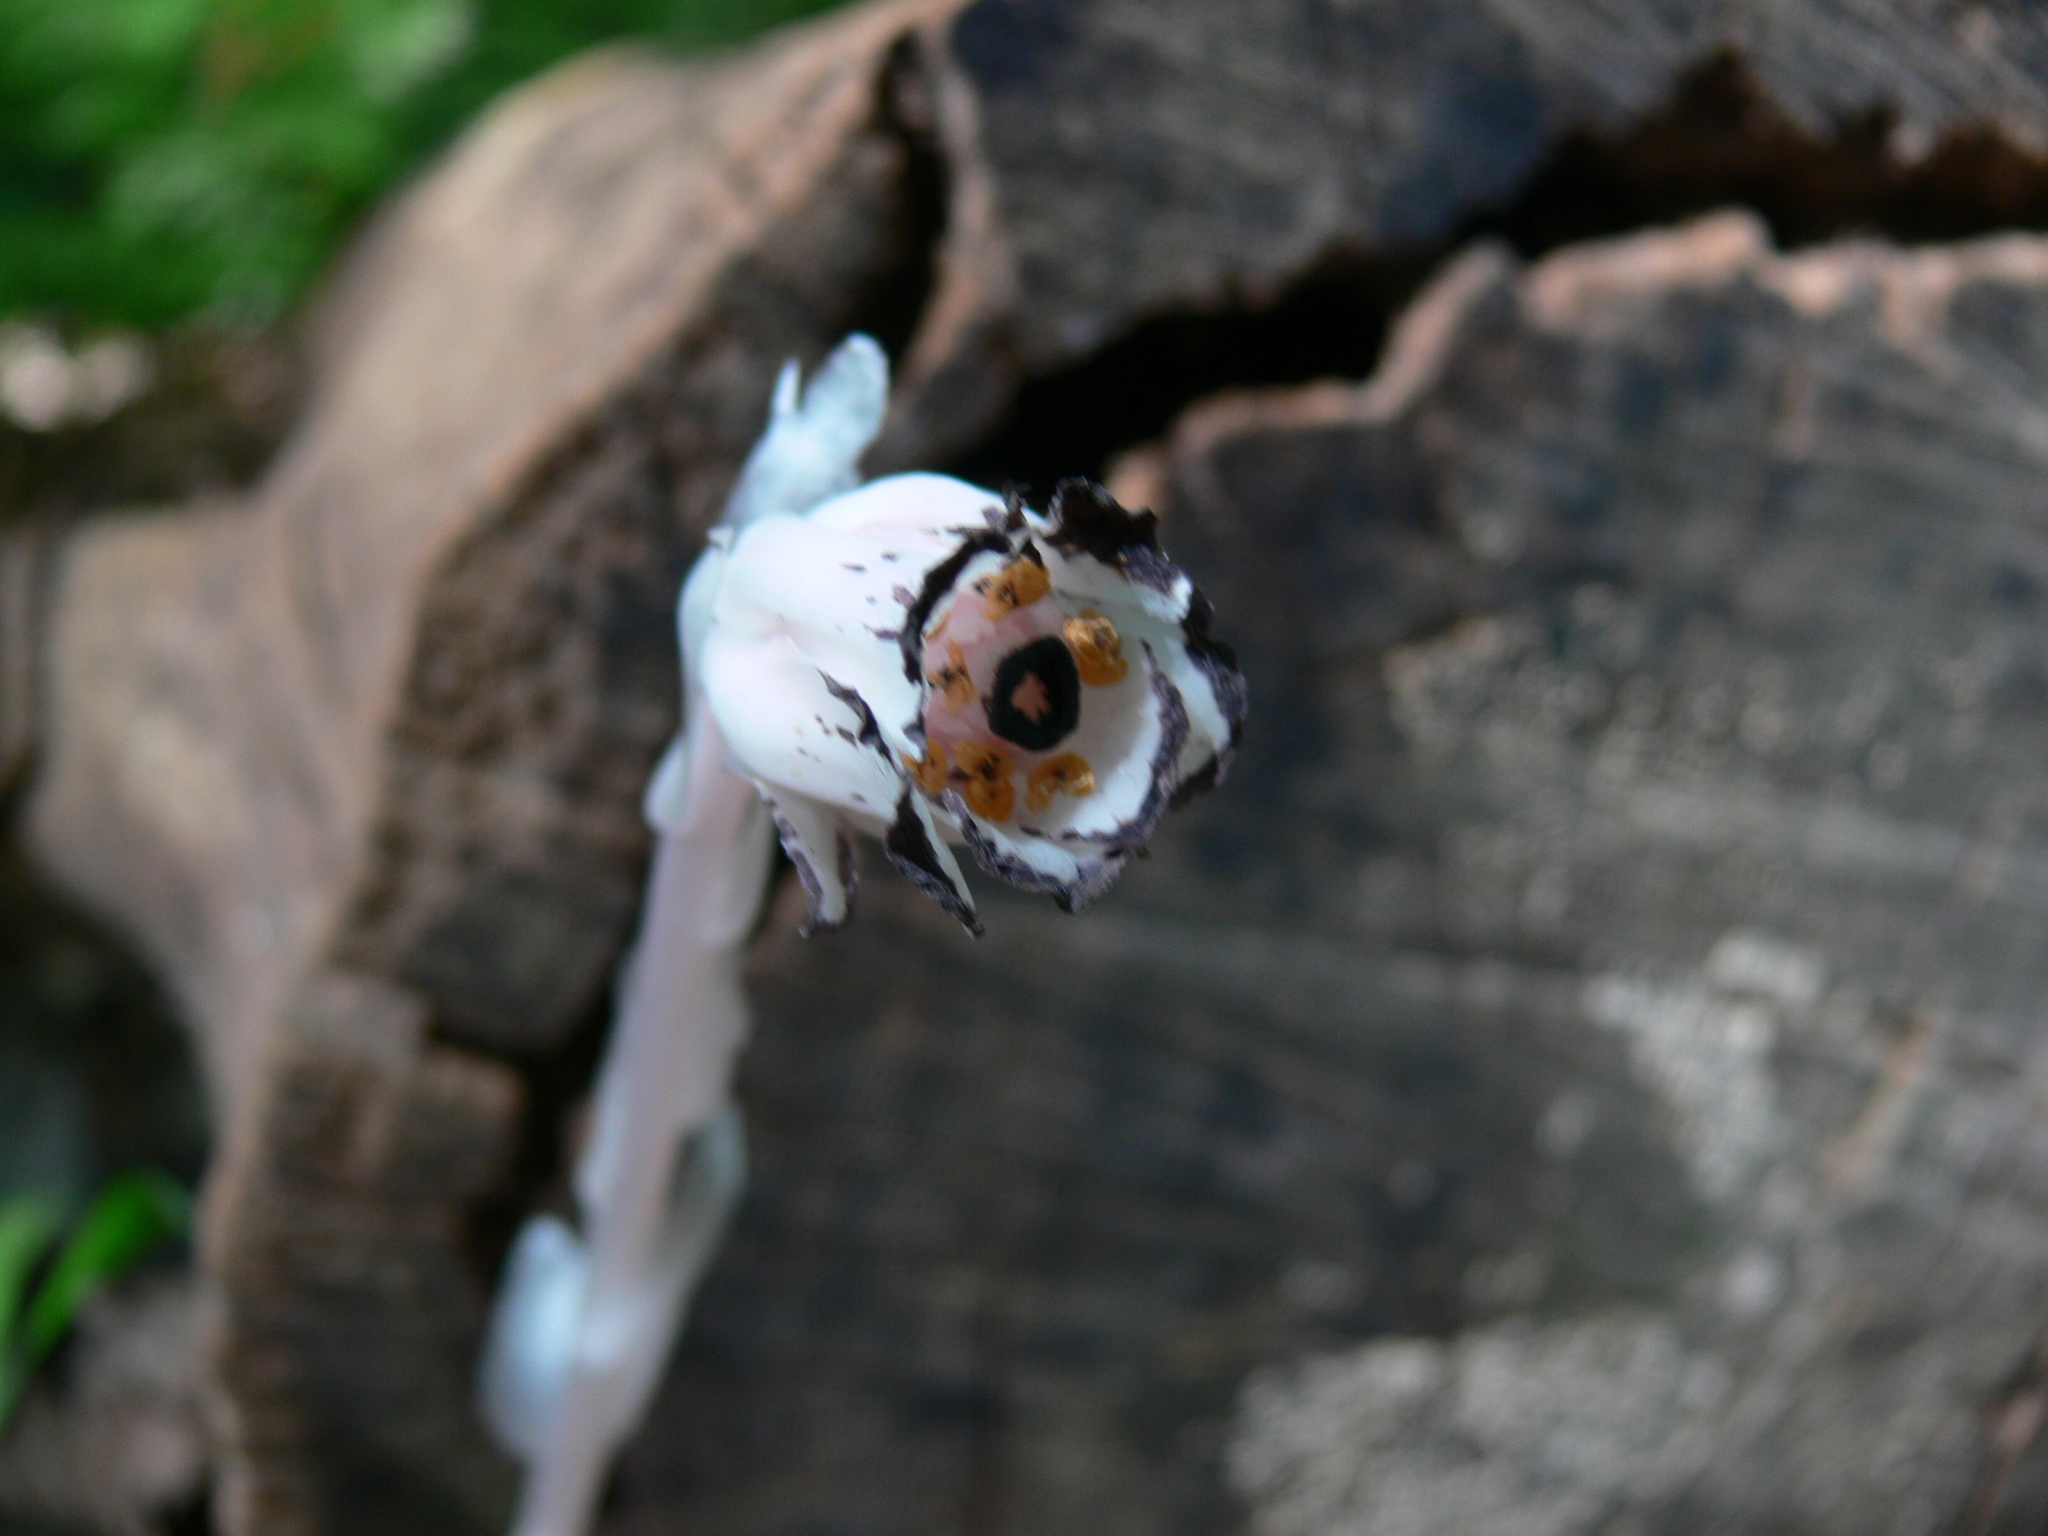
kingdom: Plantae
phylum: Tracheophyta
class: Magnoliopsida
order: Ericales
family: Ericaceae
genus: Monotropa
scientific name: Monotropa uniflora
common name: Convulsion root
